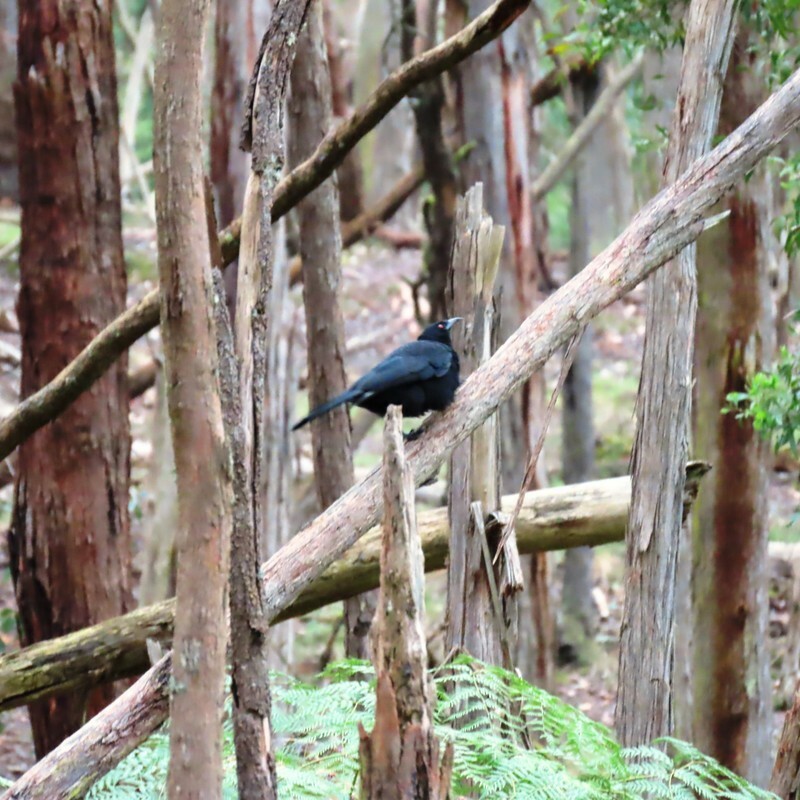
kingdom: Animalia
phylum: Chordata
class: Aves
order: Passeriformes
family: Corcoracidae
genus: Corcorax
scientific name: Corcorax melanoramphos
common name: White-winged chough
